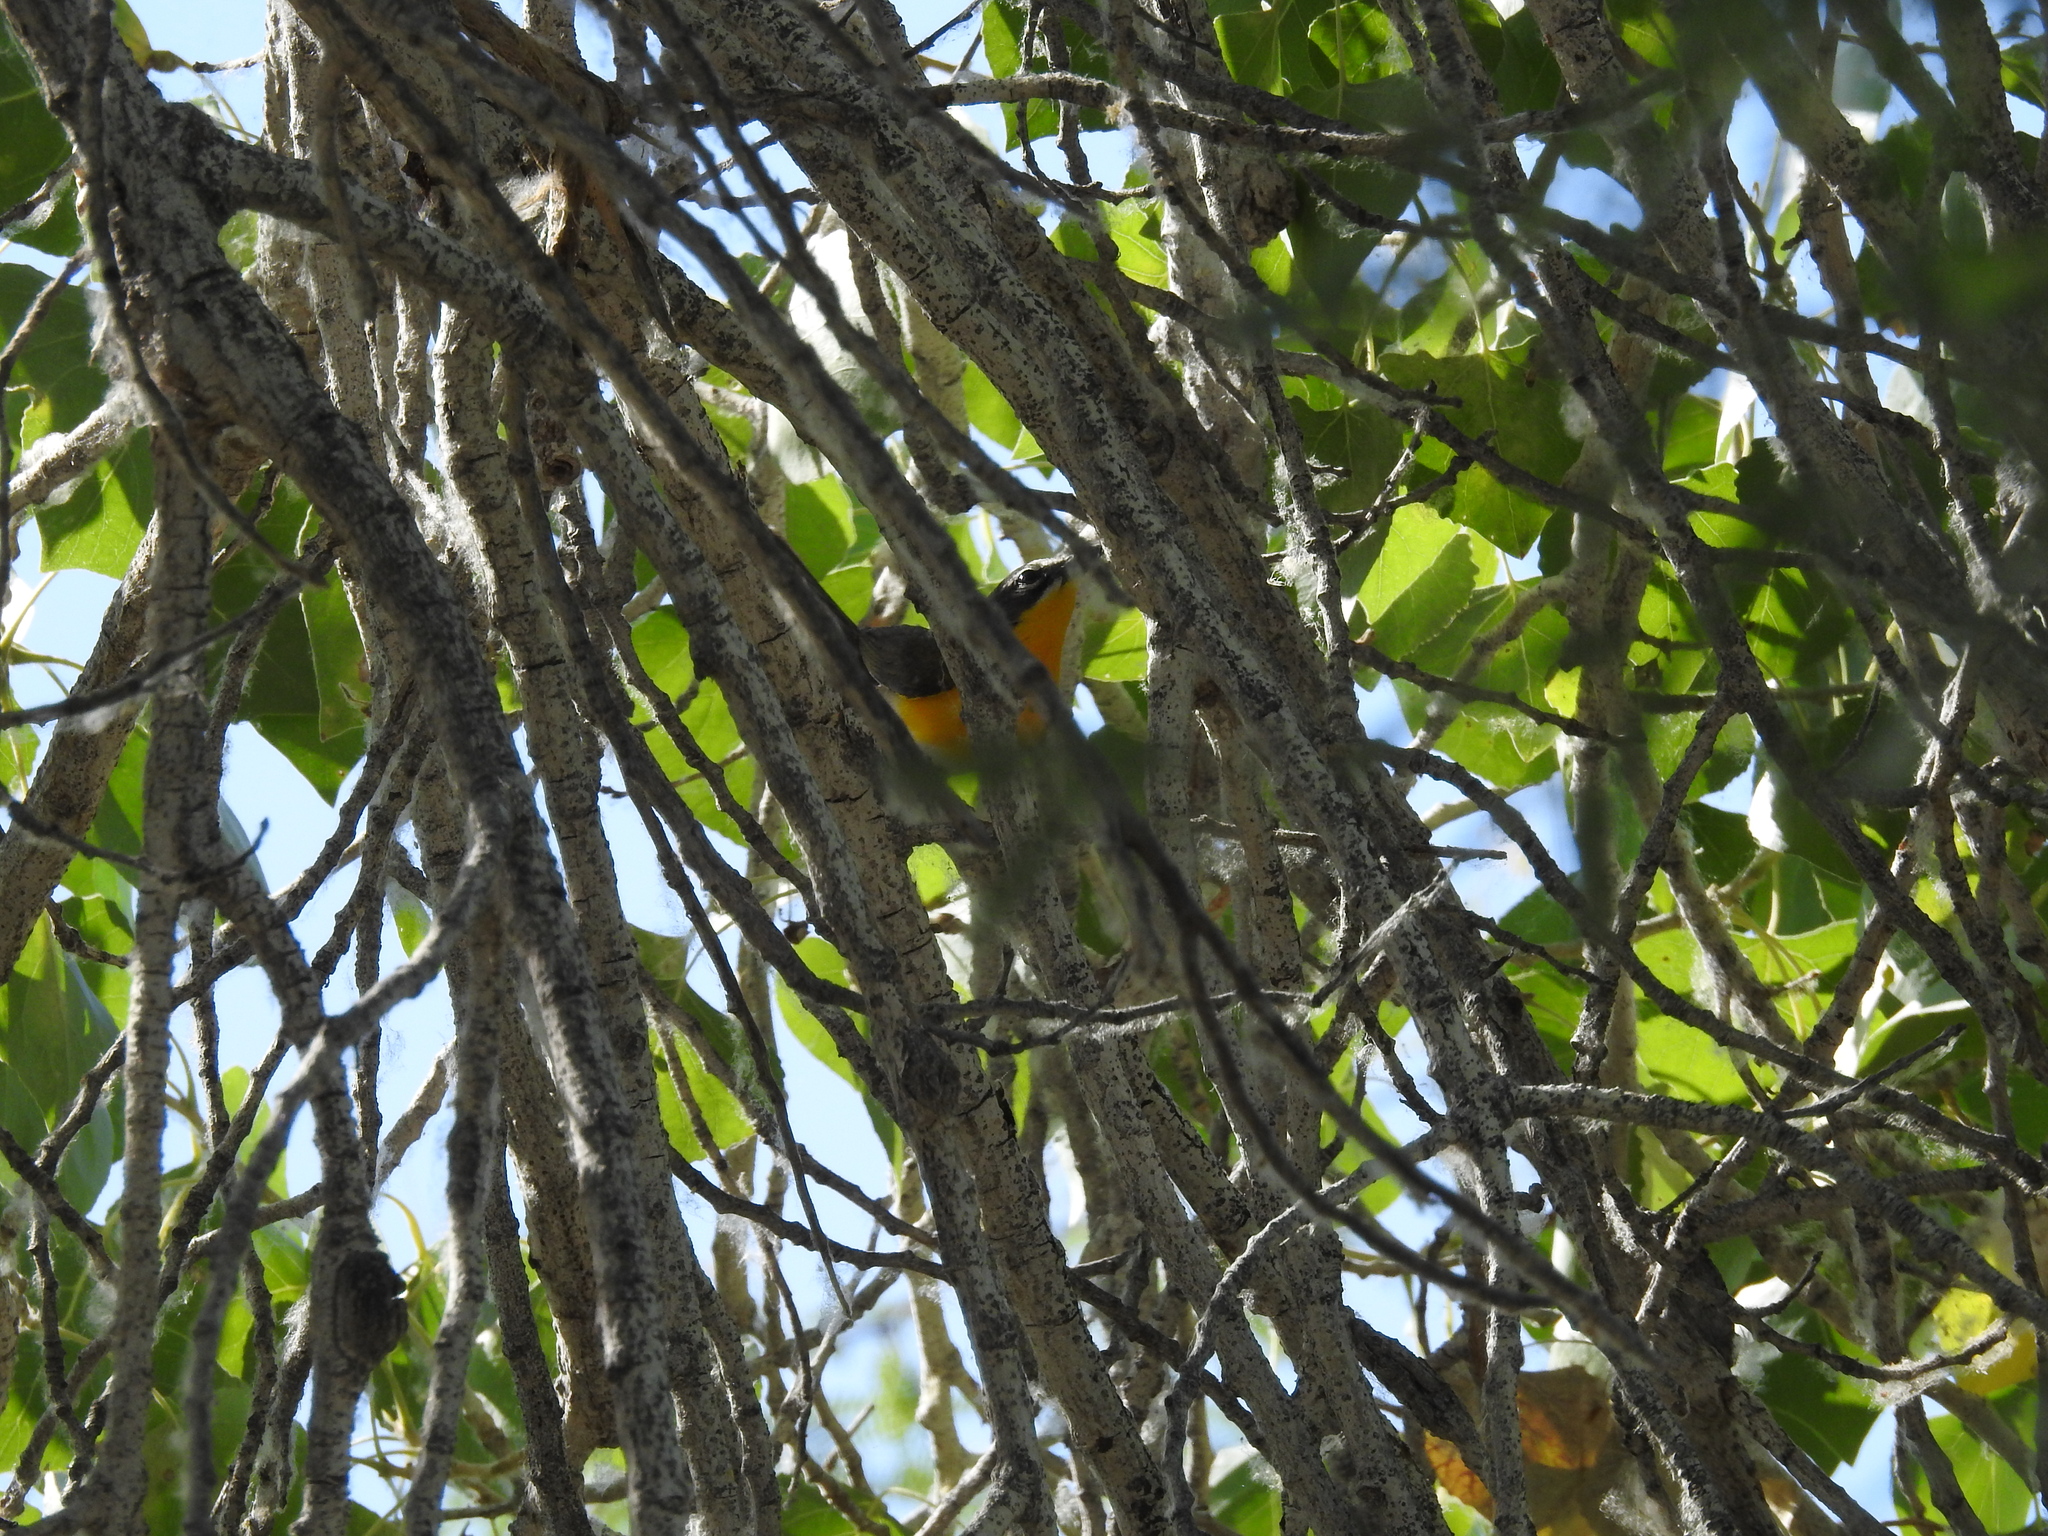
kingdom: Animalia
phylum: Chordata
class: Aves
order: Passeriformes
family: Parulidae
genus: Icteria
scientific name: Icteria virens
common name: Yellow-breasted chat
